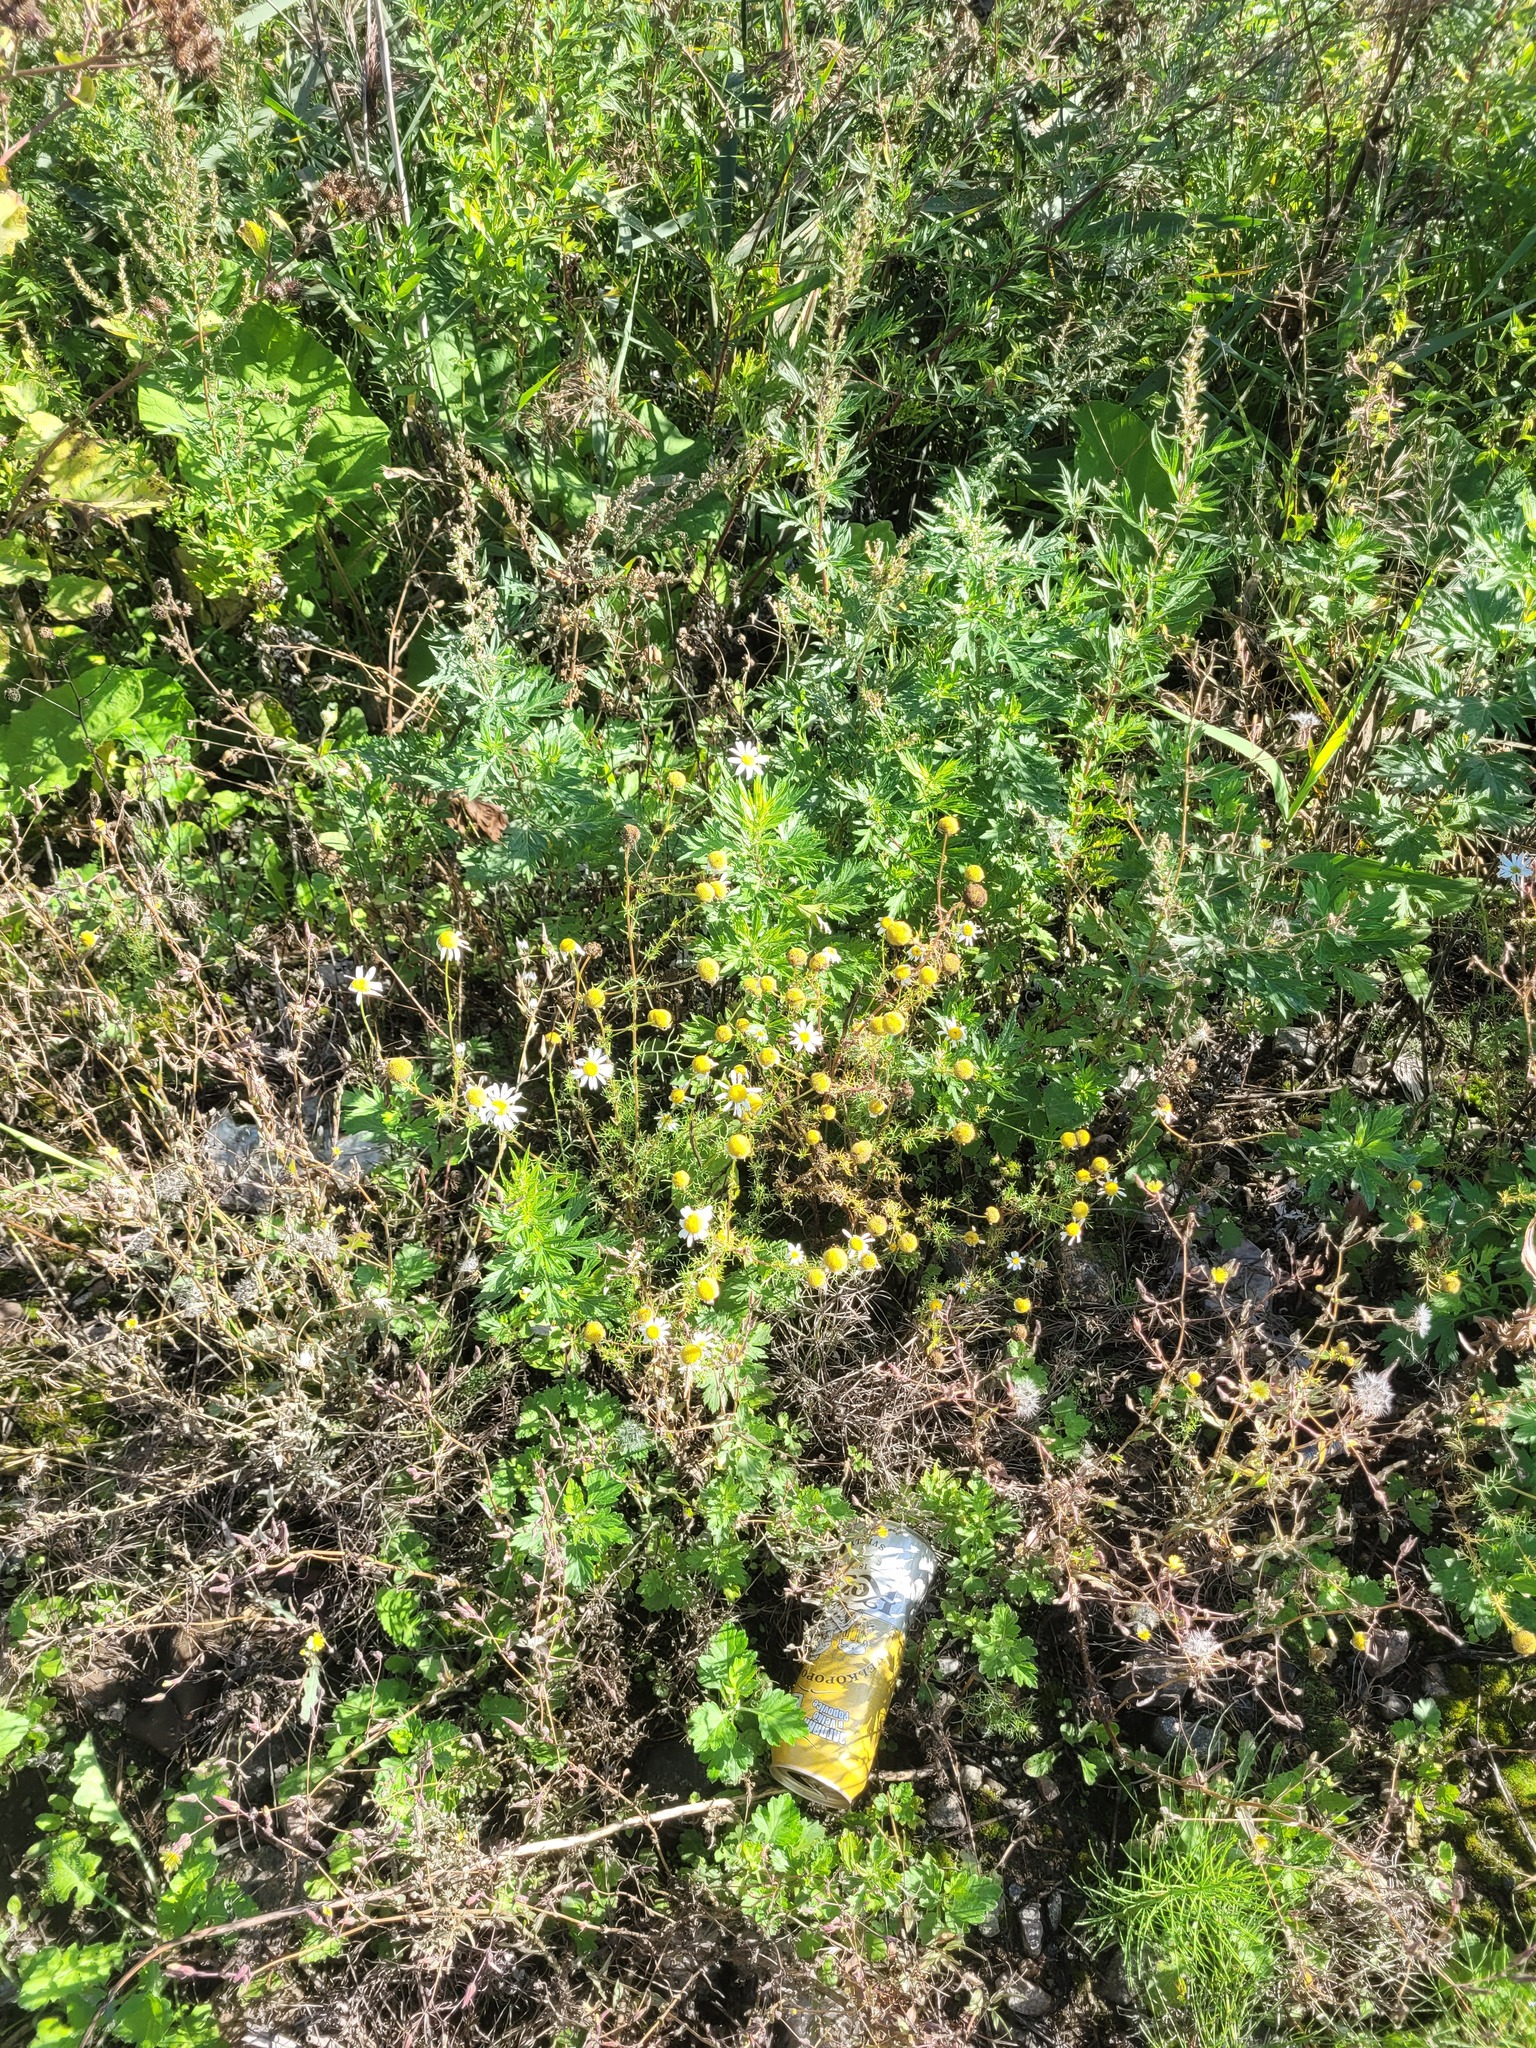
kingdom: Plantae
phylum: Tracheophyta
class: Magnoliopsida
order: Asterales
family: Asteraceae
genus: Tripleurospermum
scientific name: Tripleurospermum inodorum
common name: Scentless mayweed
